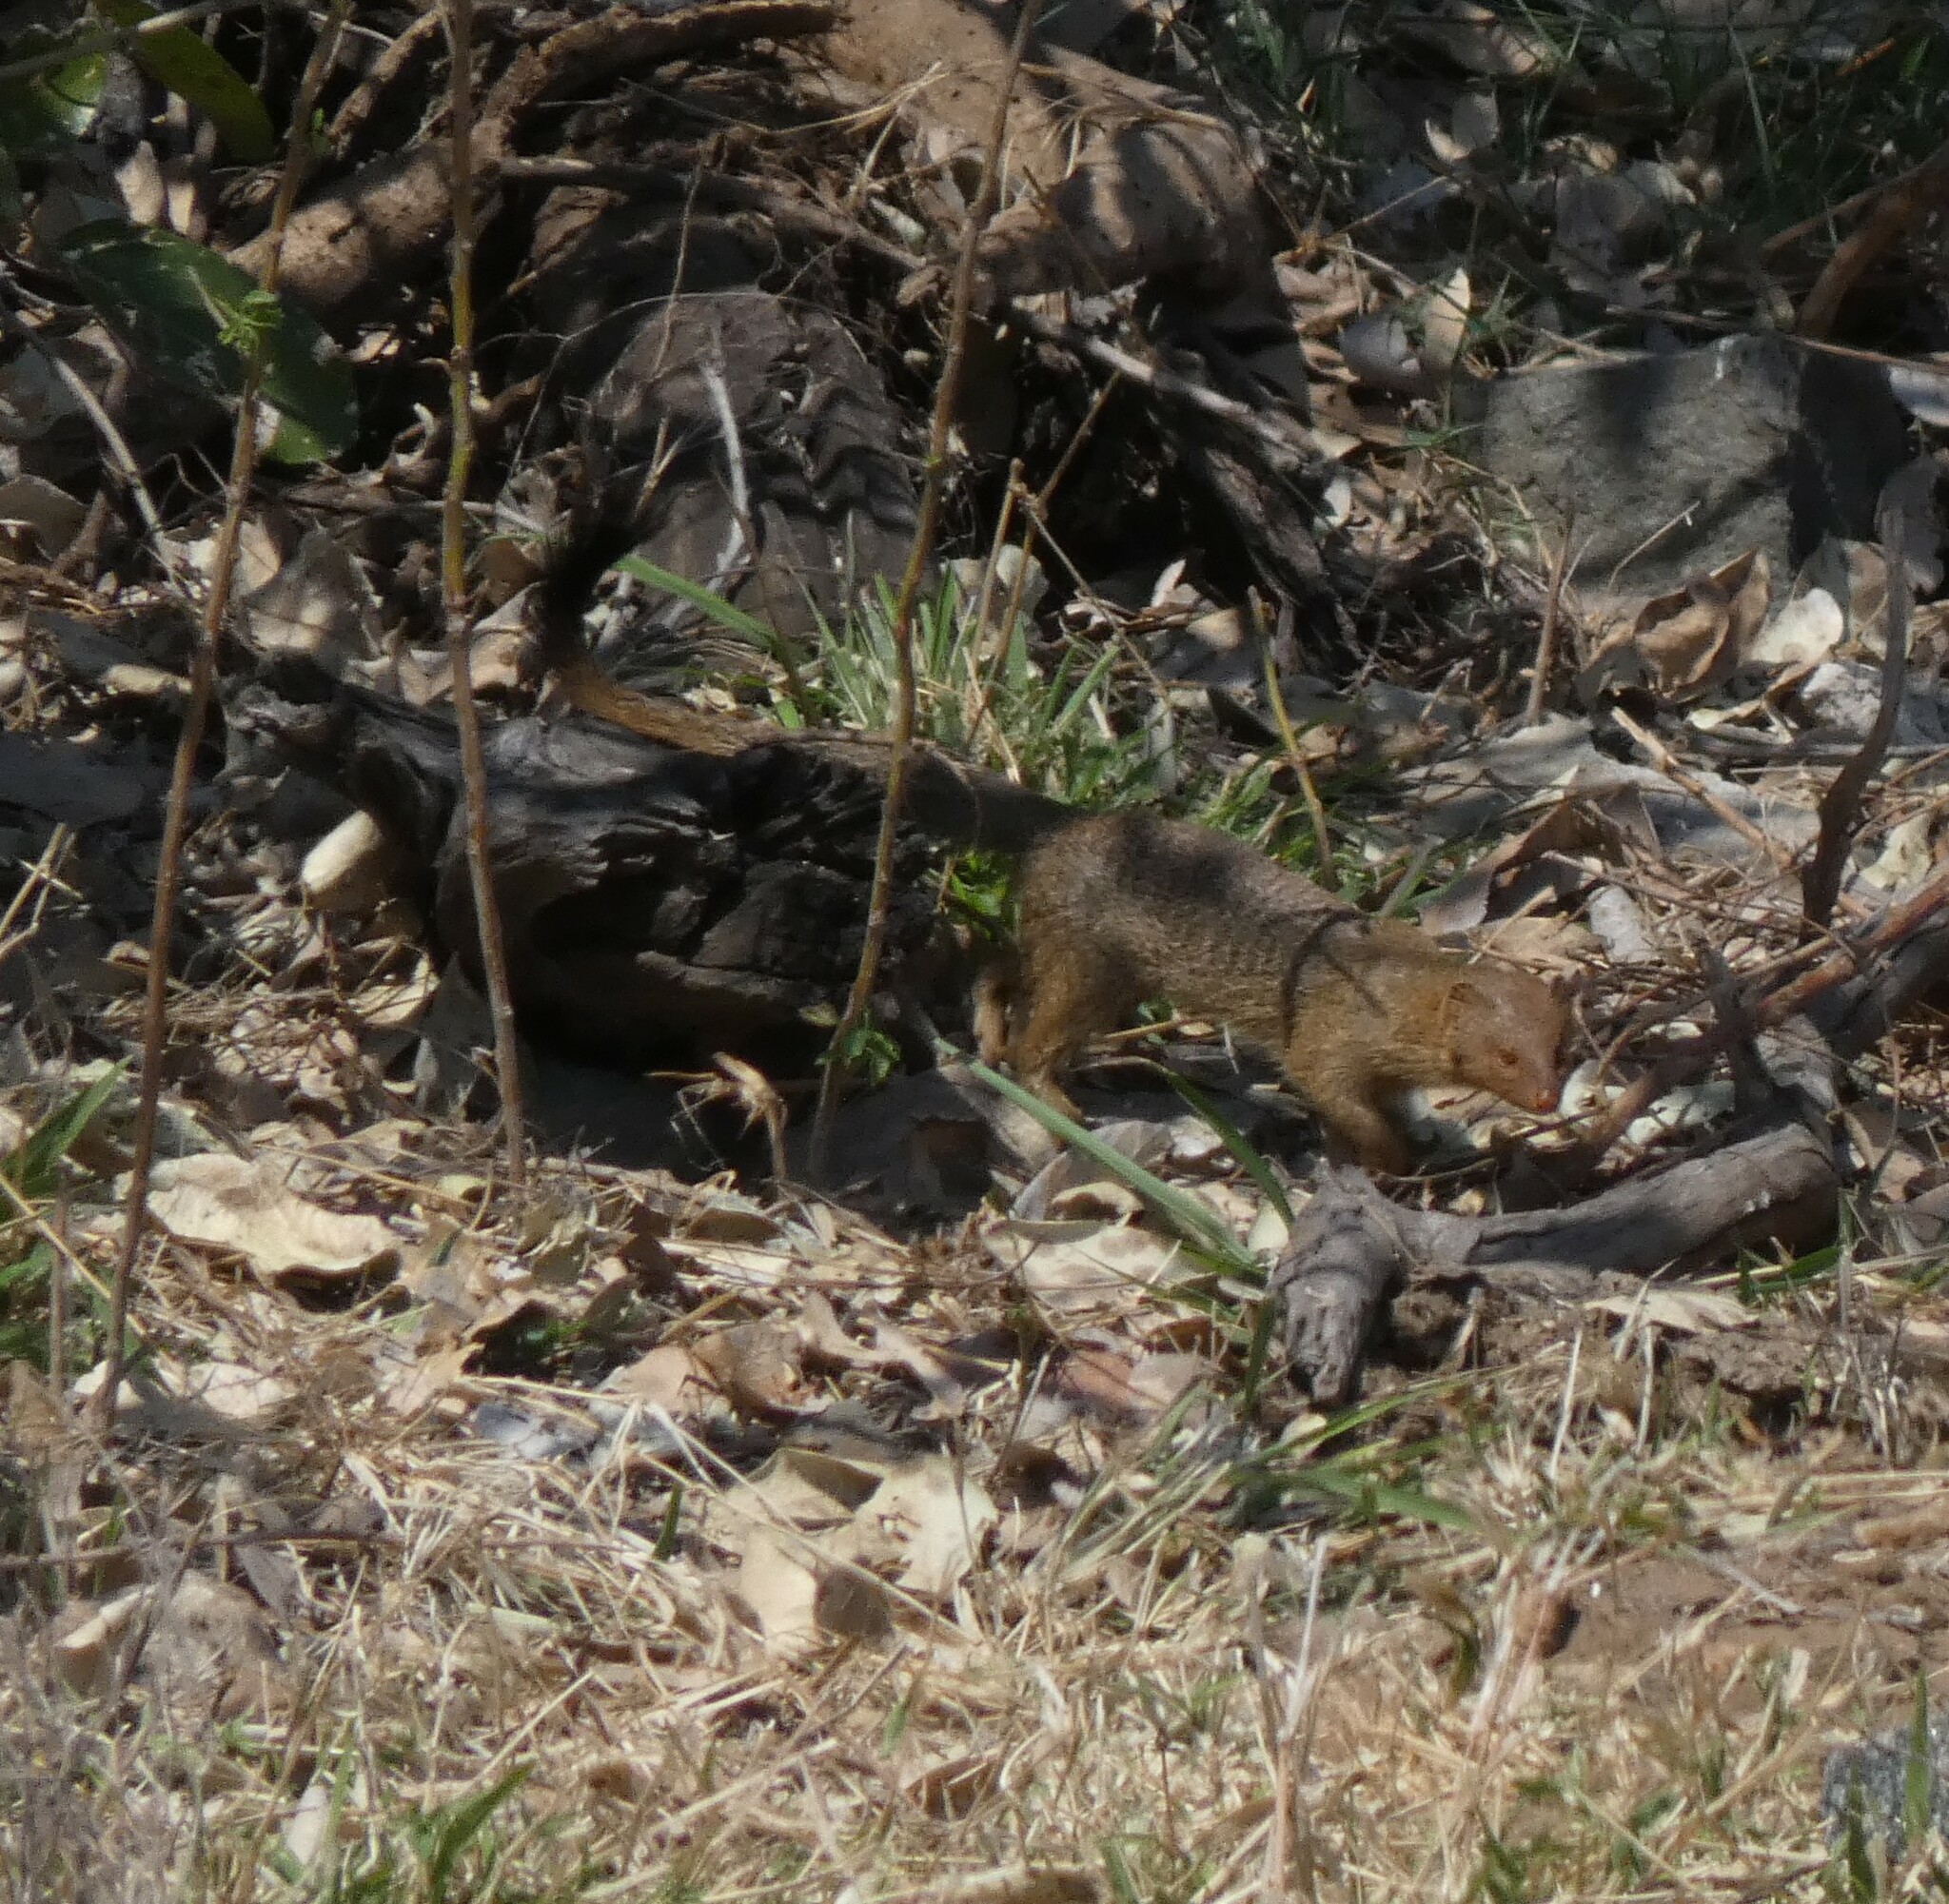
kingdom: Animalia
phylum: Chordata
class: Mammalia
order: Carnivora
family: Herpestidae
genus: Galerella
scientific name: Galerella sanguinea
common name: Slender mongoose
